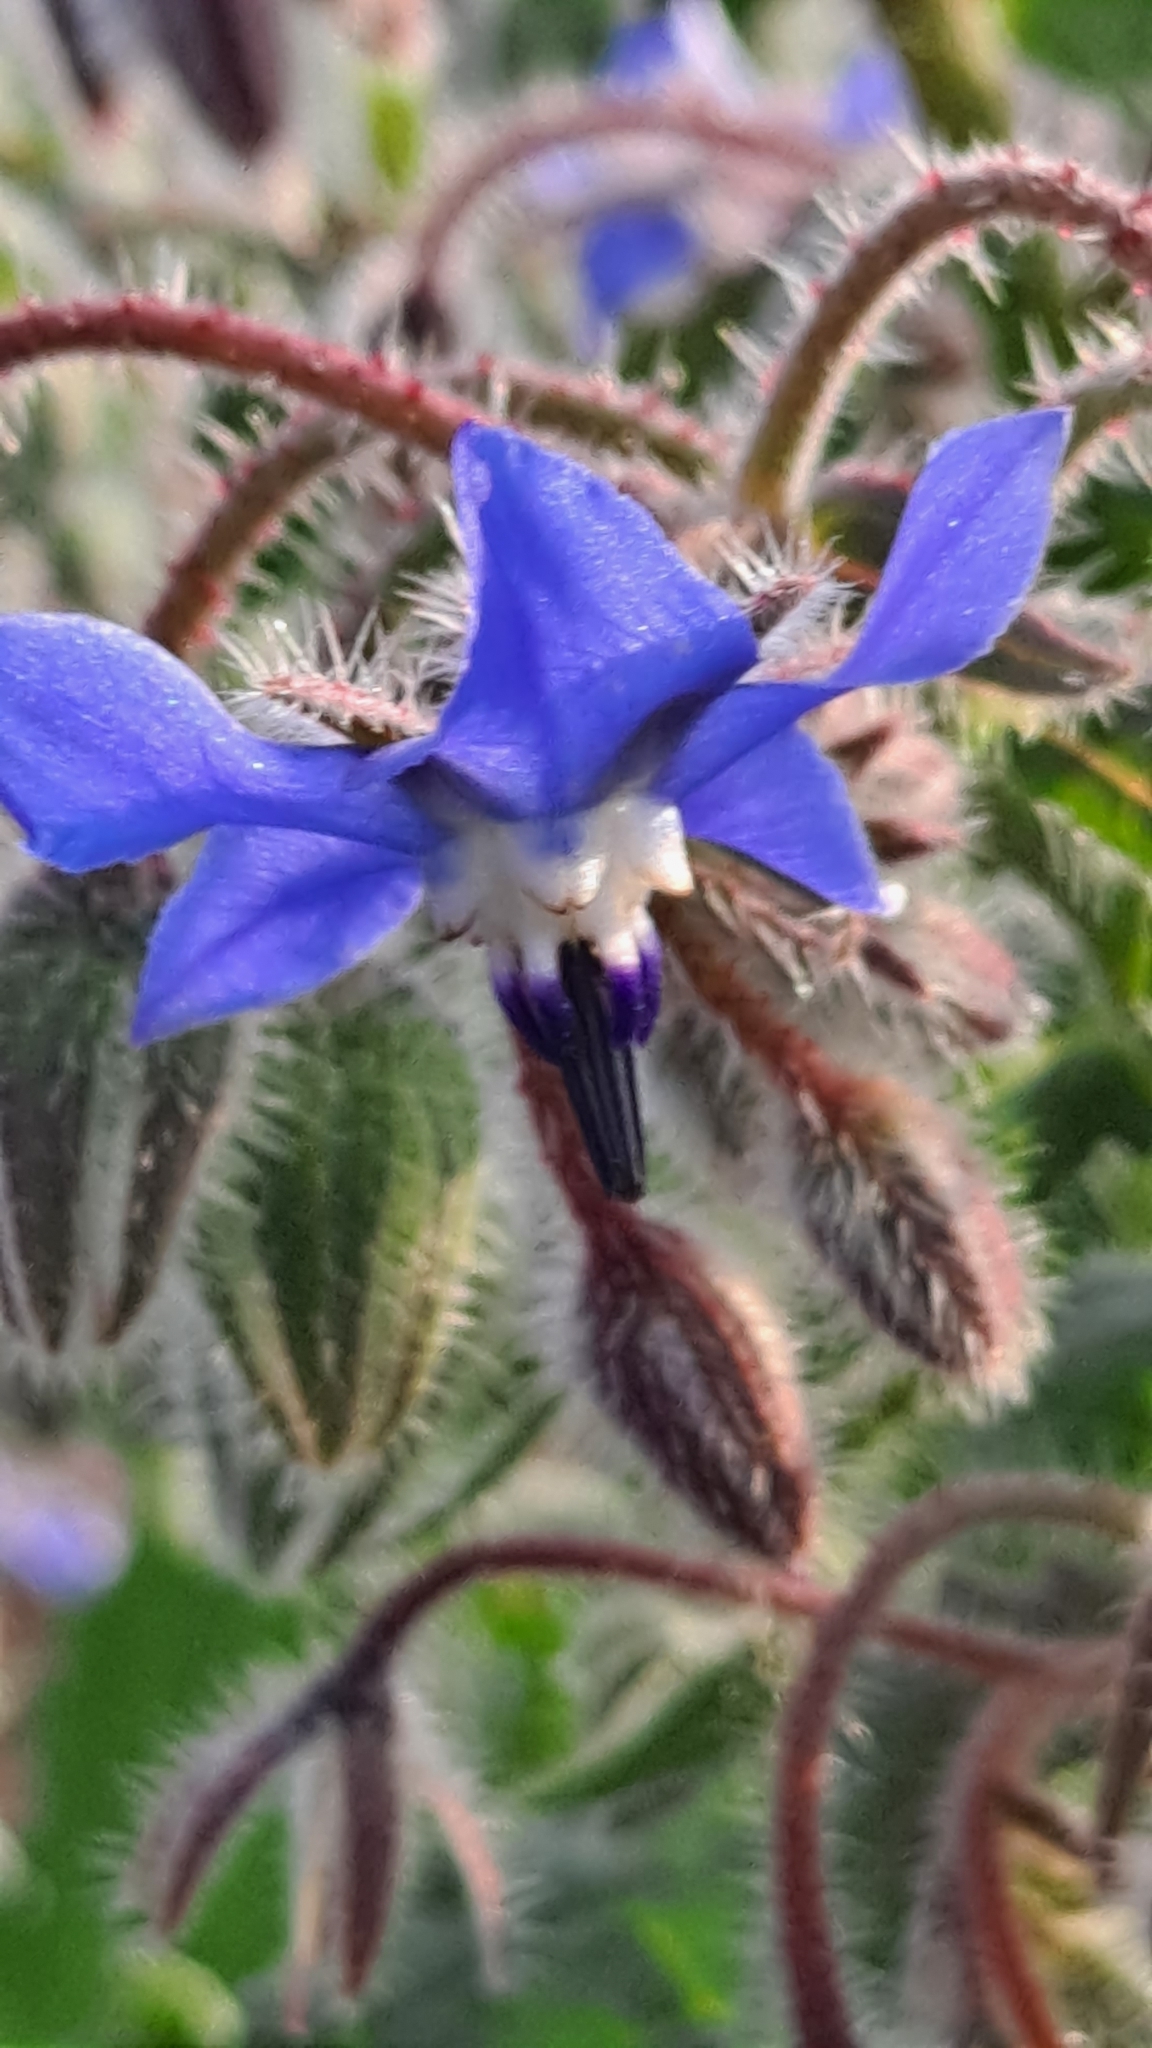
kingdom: Plantae
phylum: Tracheophyta
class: Magnoliopsida
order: Boraginales
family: Boraginaceae
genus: Borago
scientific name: Borago officinalis
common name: Borage
